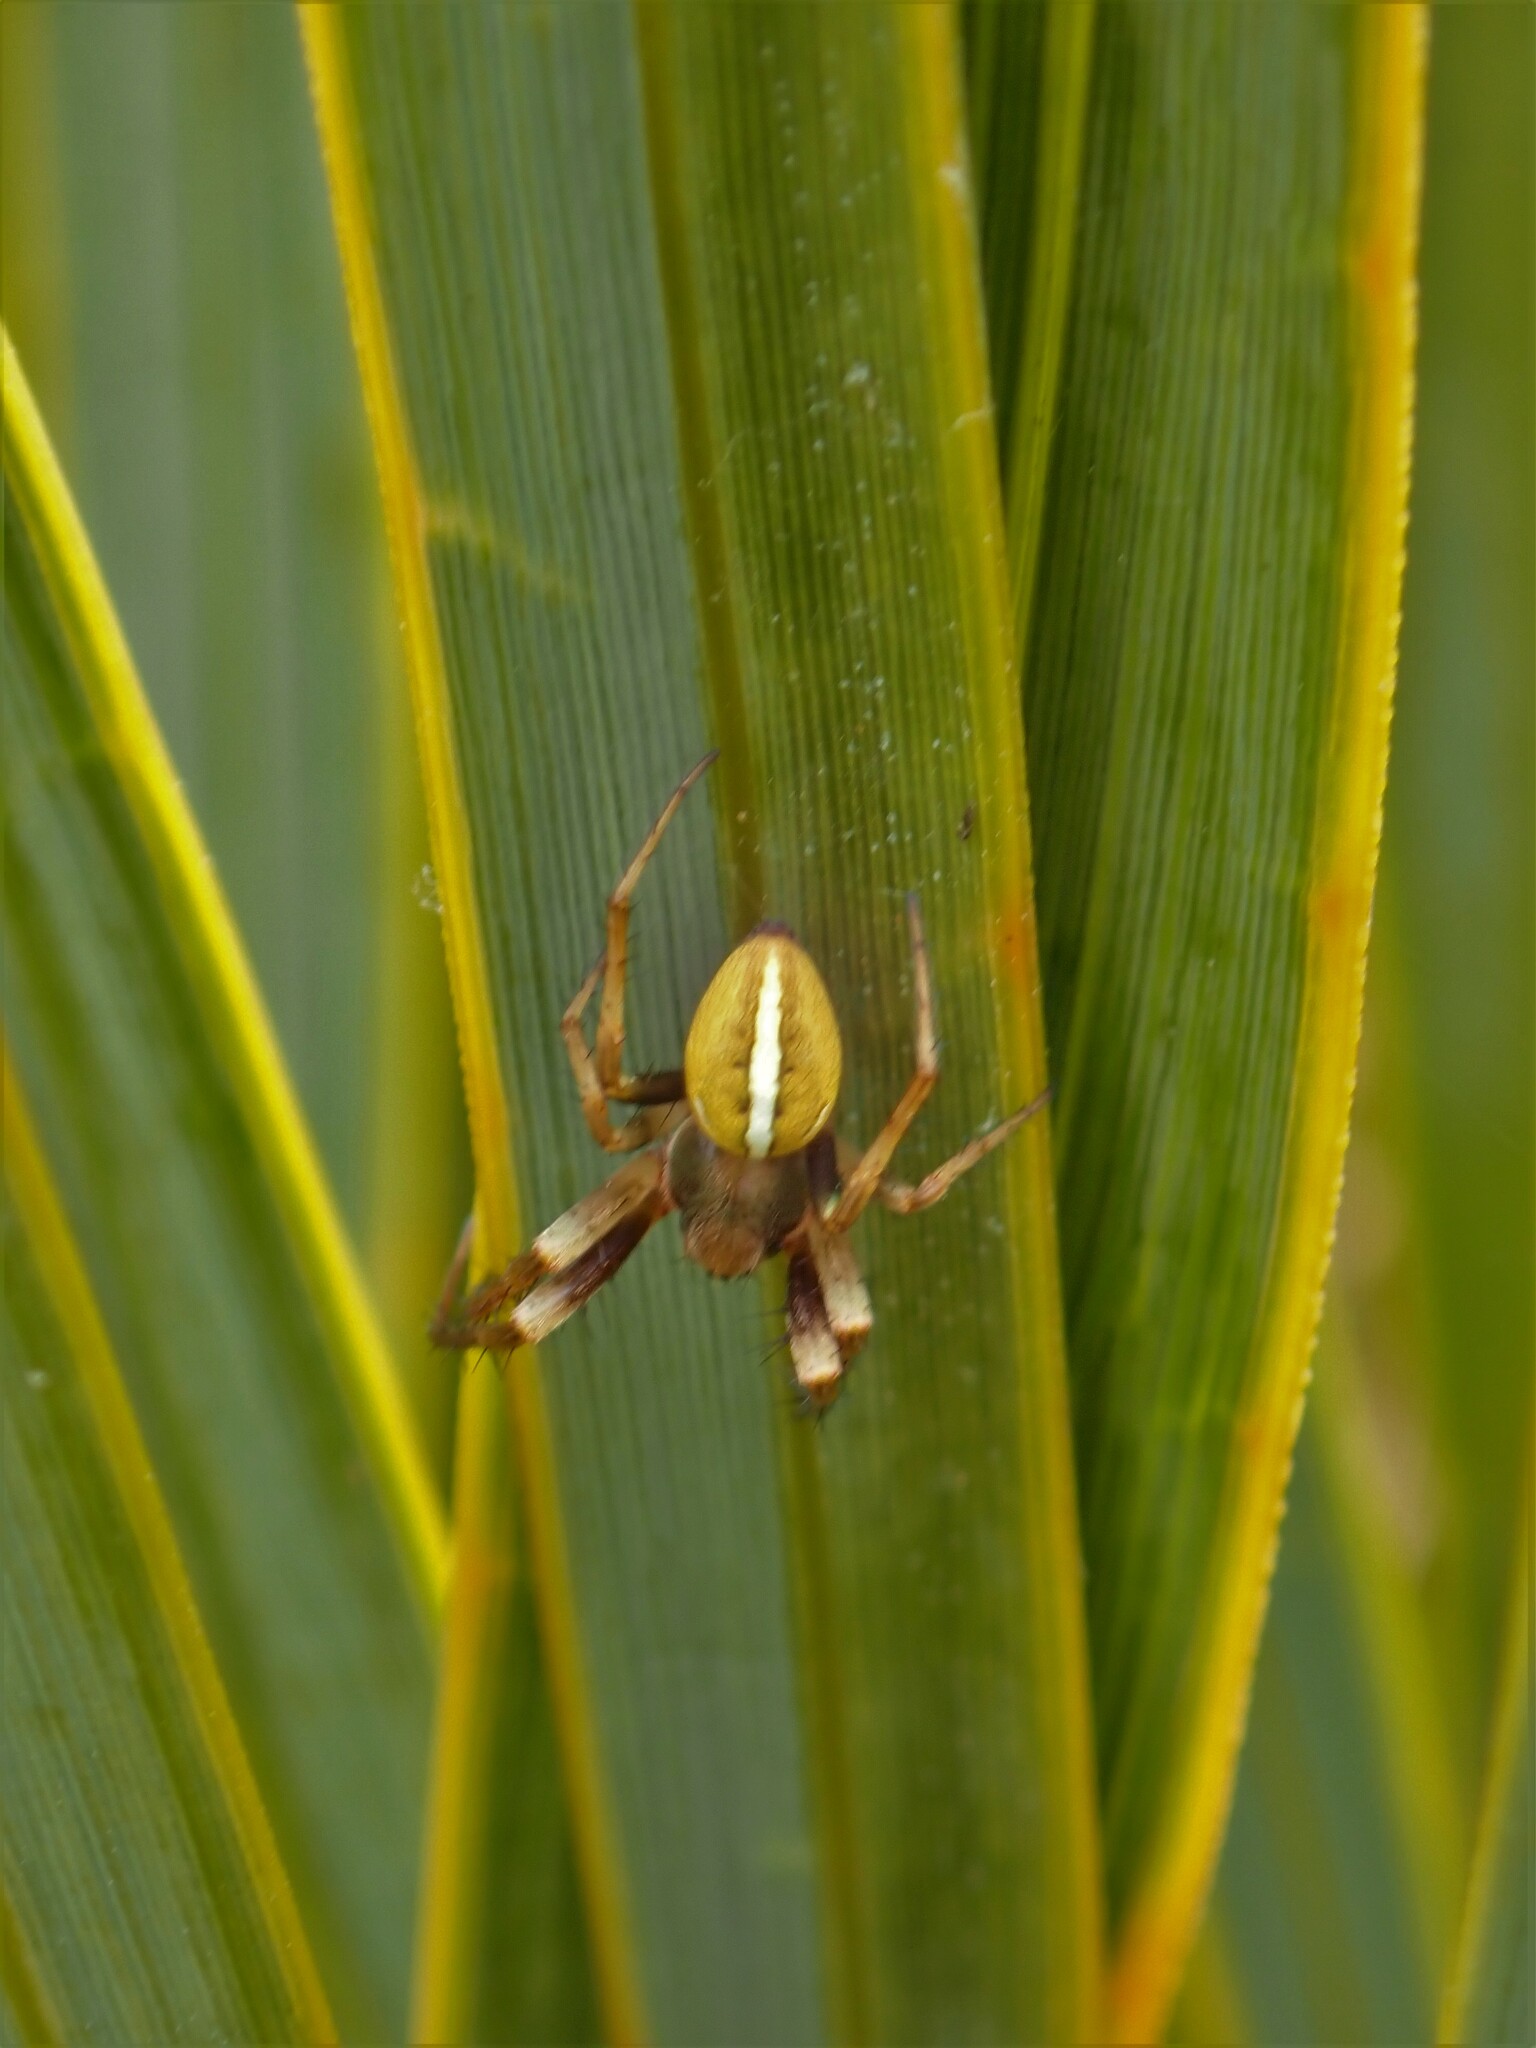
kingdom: Animalia
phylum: Arthropoda
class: Arachnida
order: Araneae
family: Araneidae
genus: Colaranea
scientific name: Colaranea brunnea
